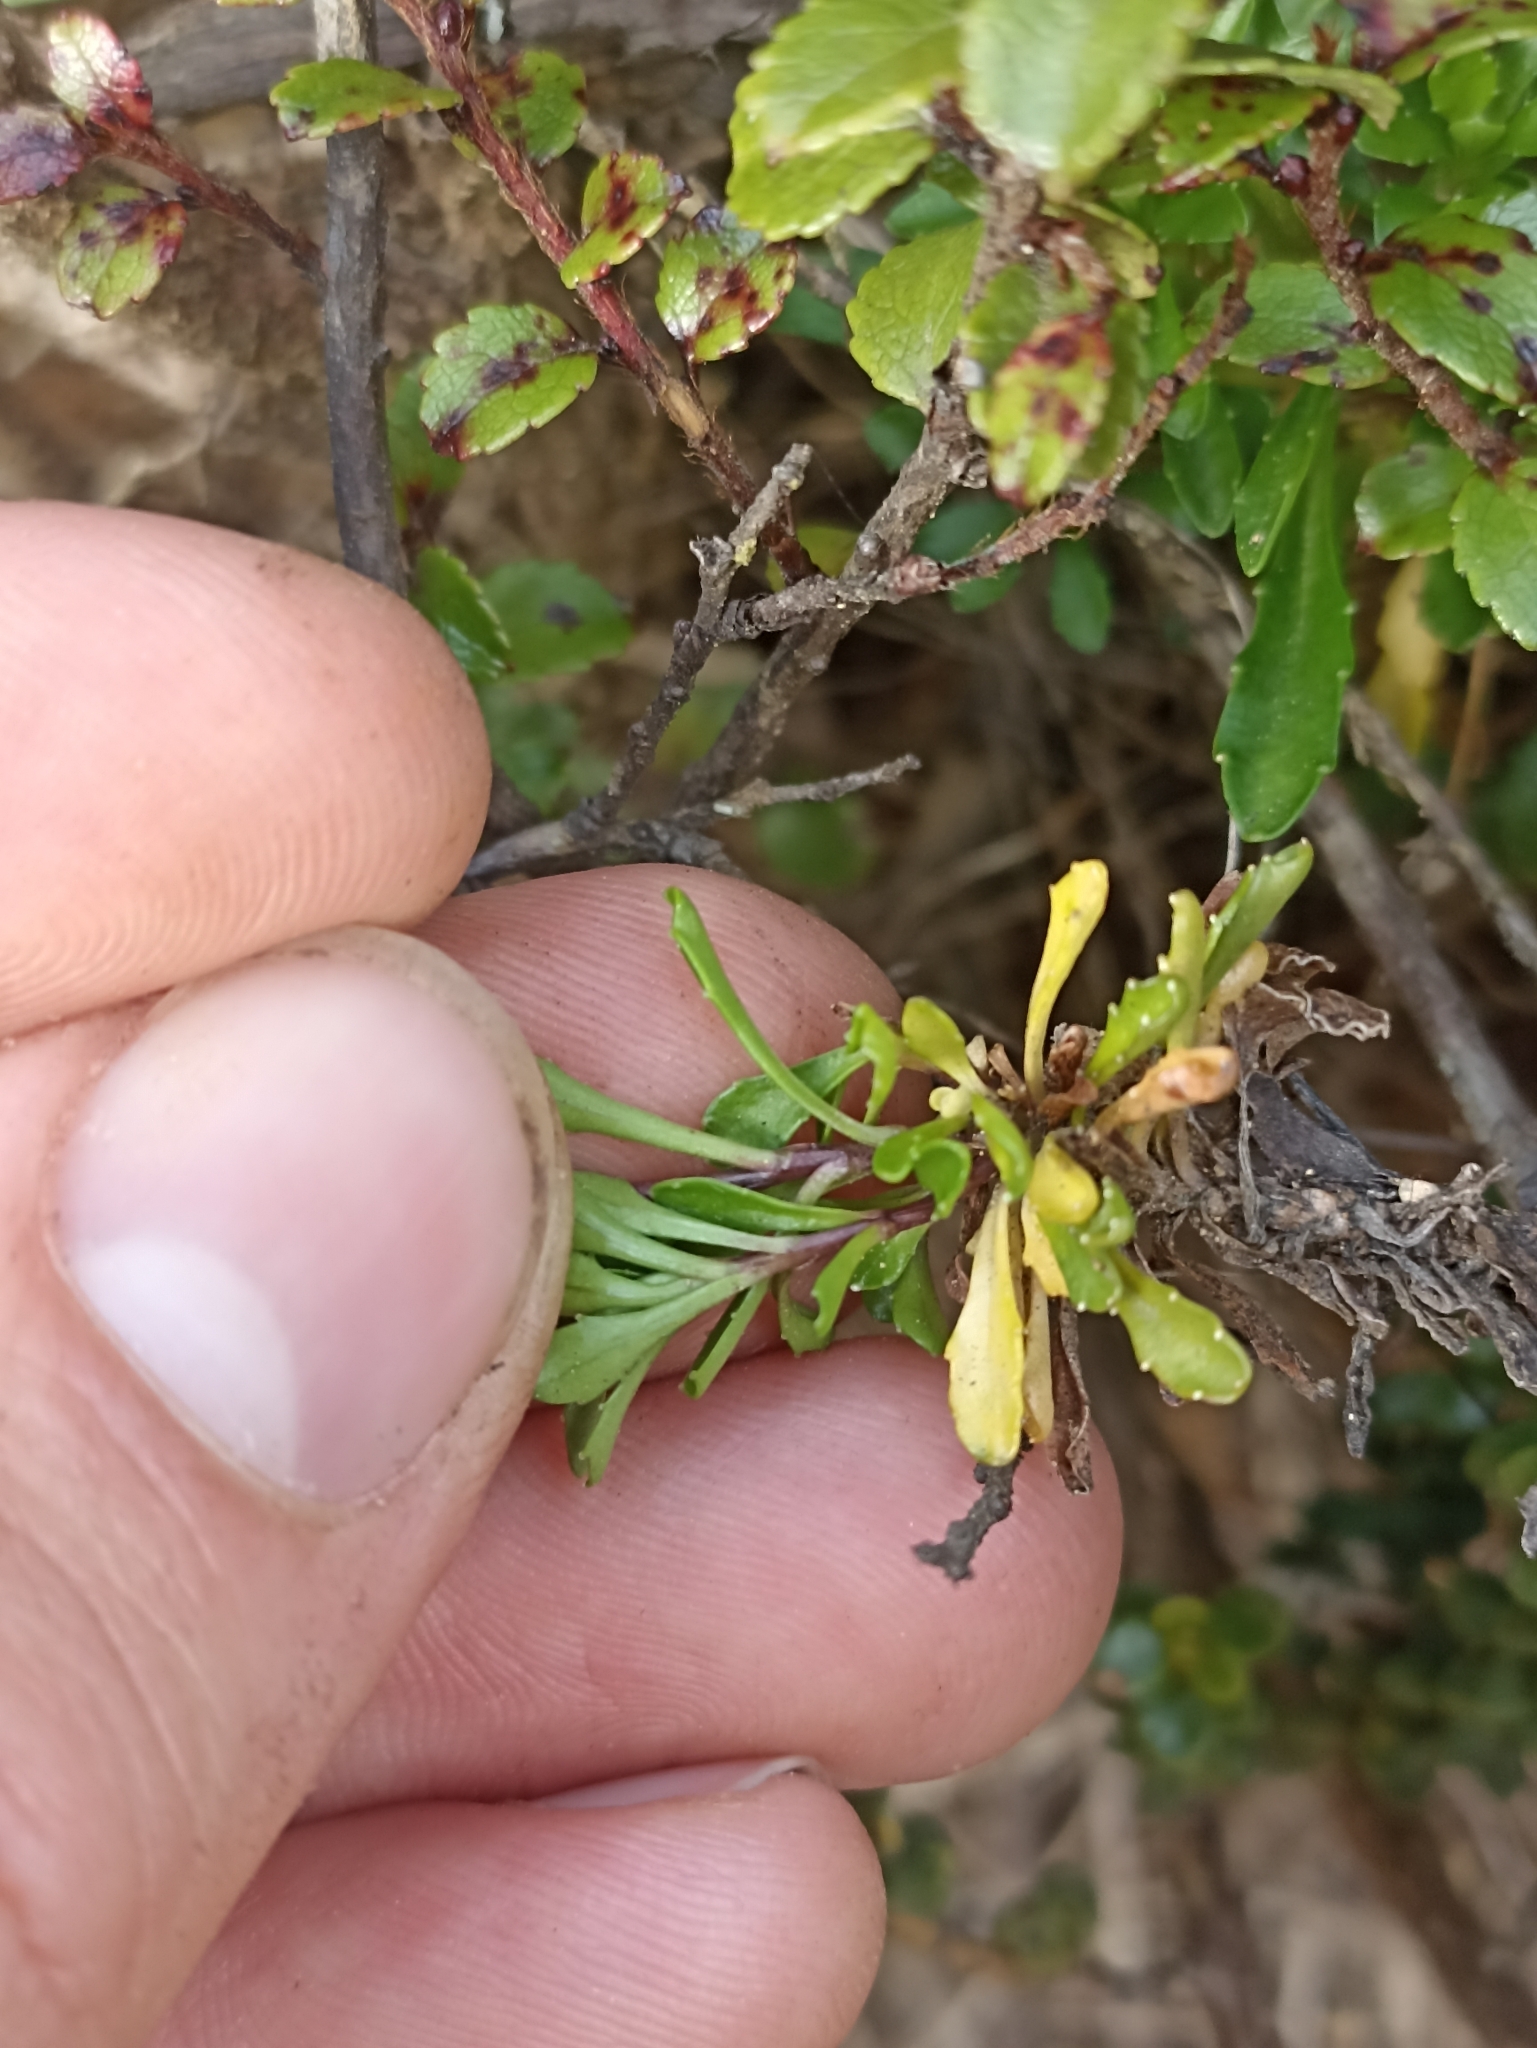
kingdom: Plantae
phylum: Tracheophyta
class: Magnoliopsida
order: Asterales
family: Campanulaceae
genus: Wahlenbergia
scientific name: Wahlenbergia pygmaea
